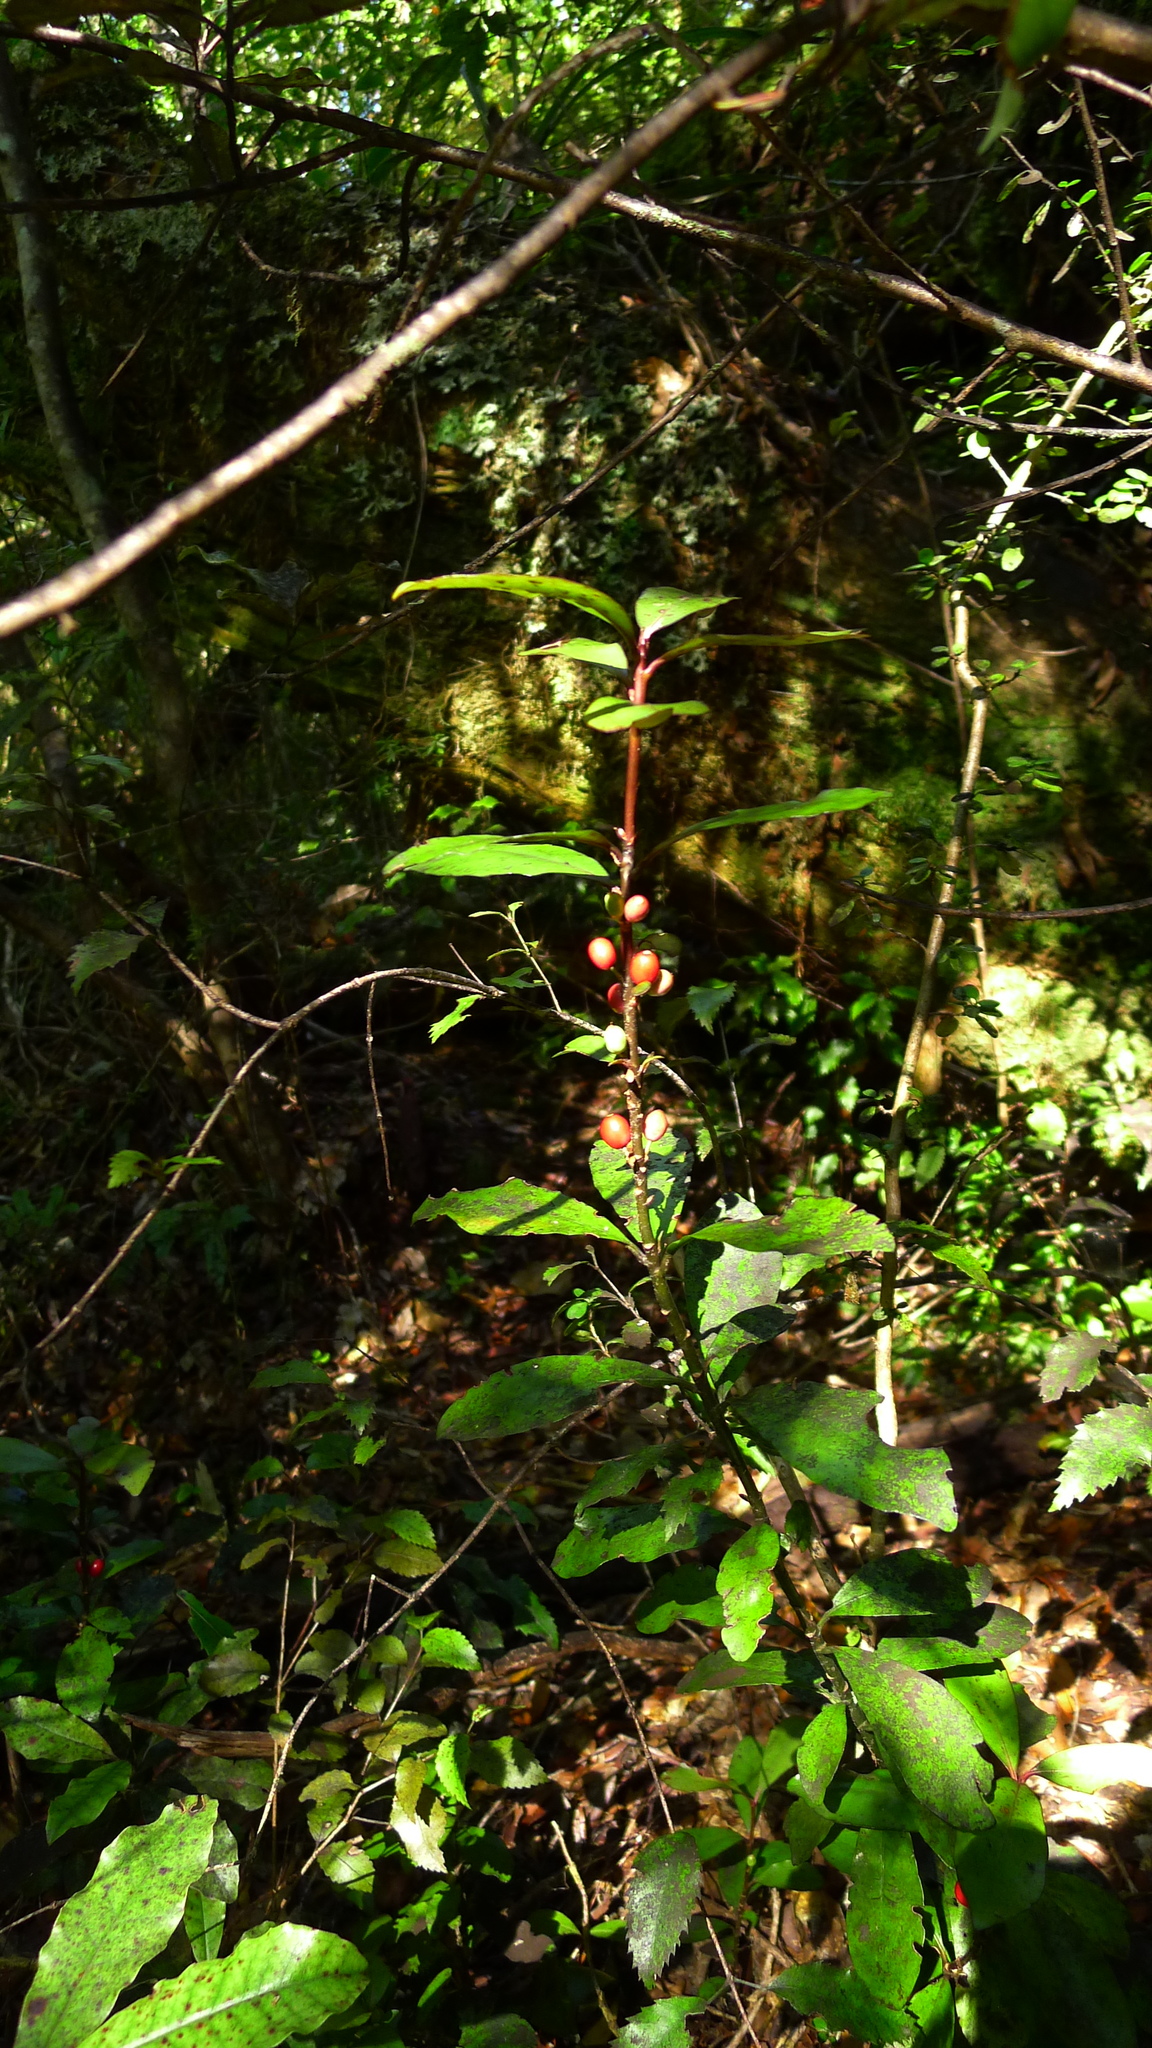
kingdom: Plantae
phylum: Tracheophyta
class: Magnoliopsida
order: Asterales
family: Alseuosmiaceae
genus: Alseuosmia
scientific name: Alseuosmia pusilla
